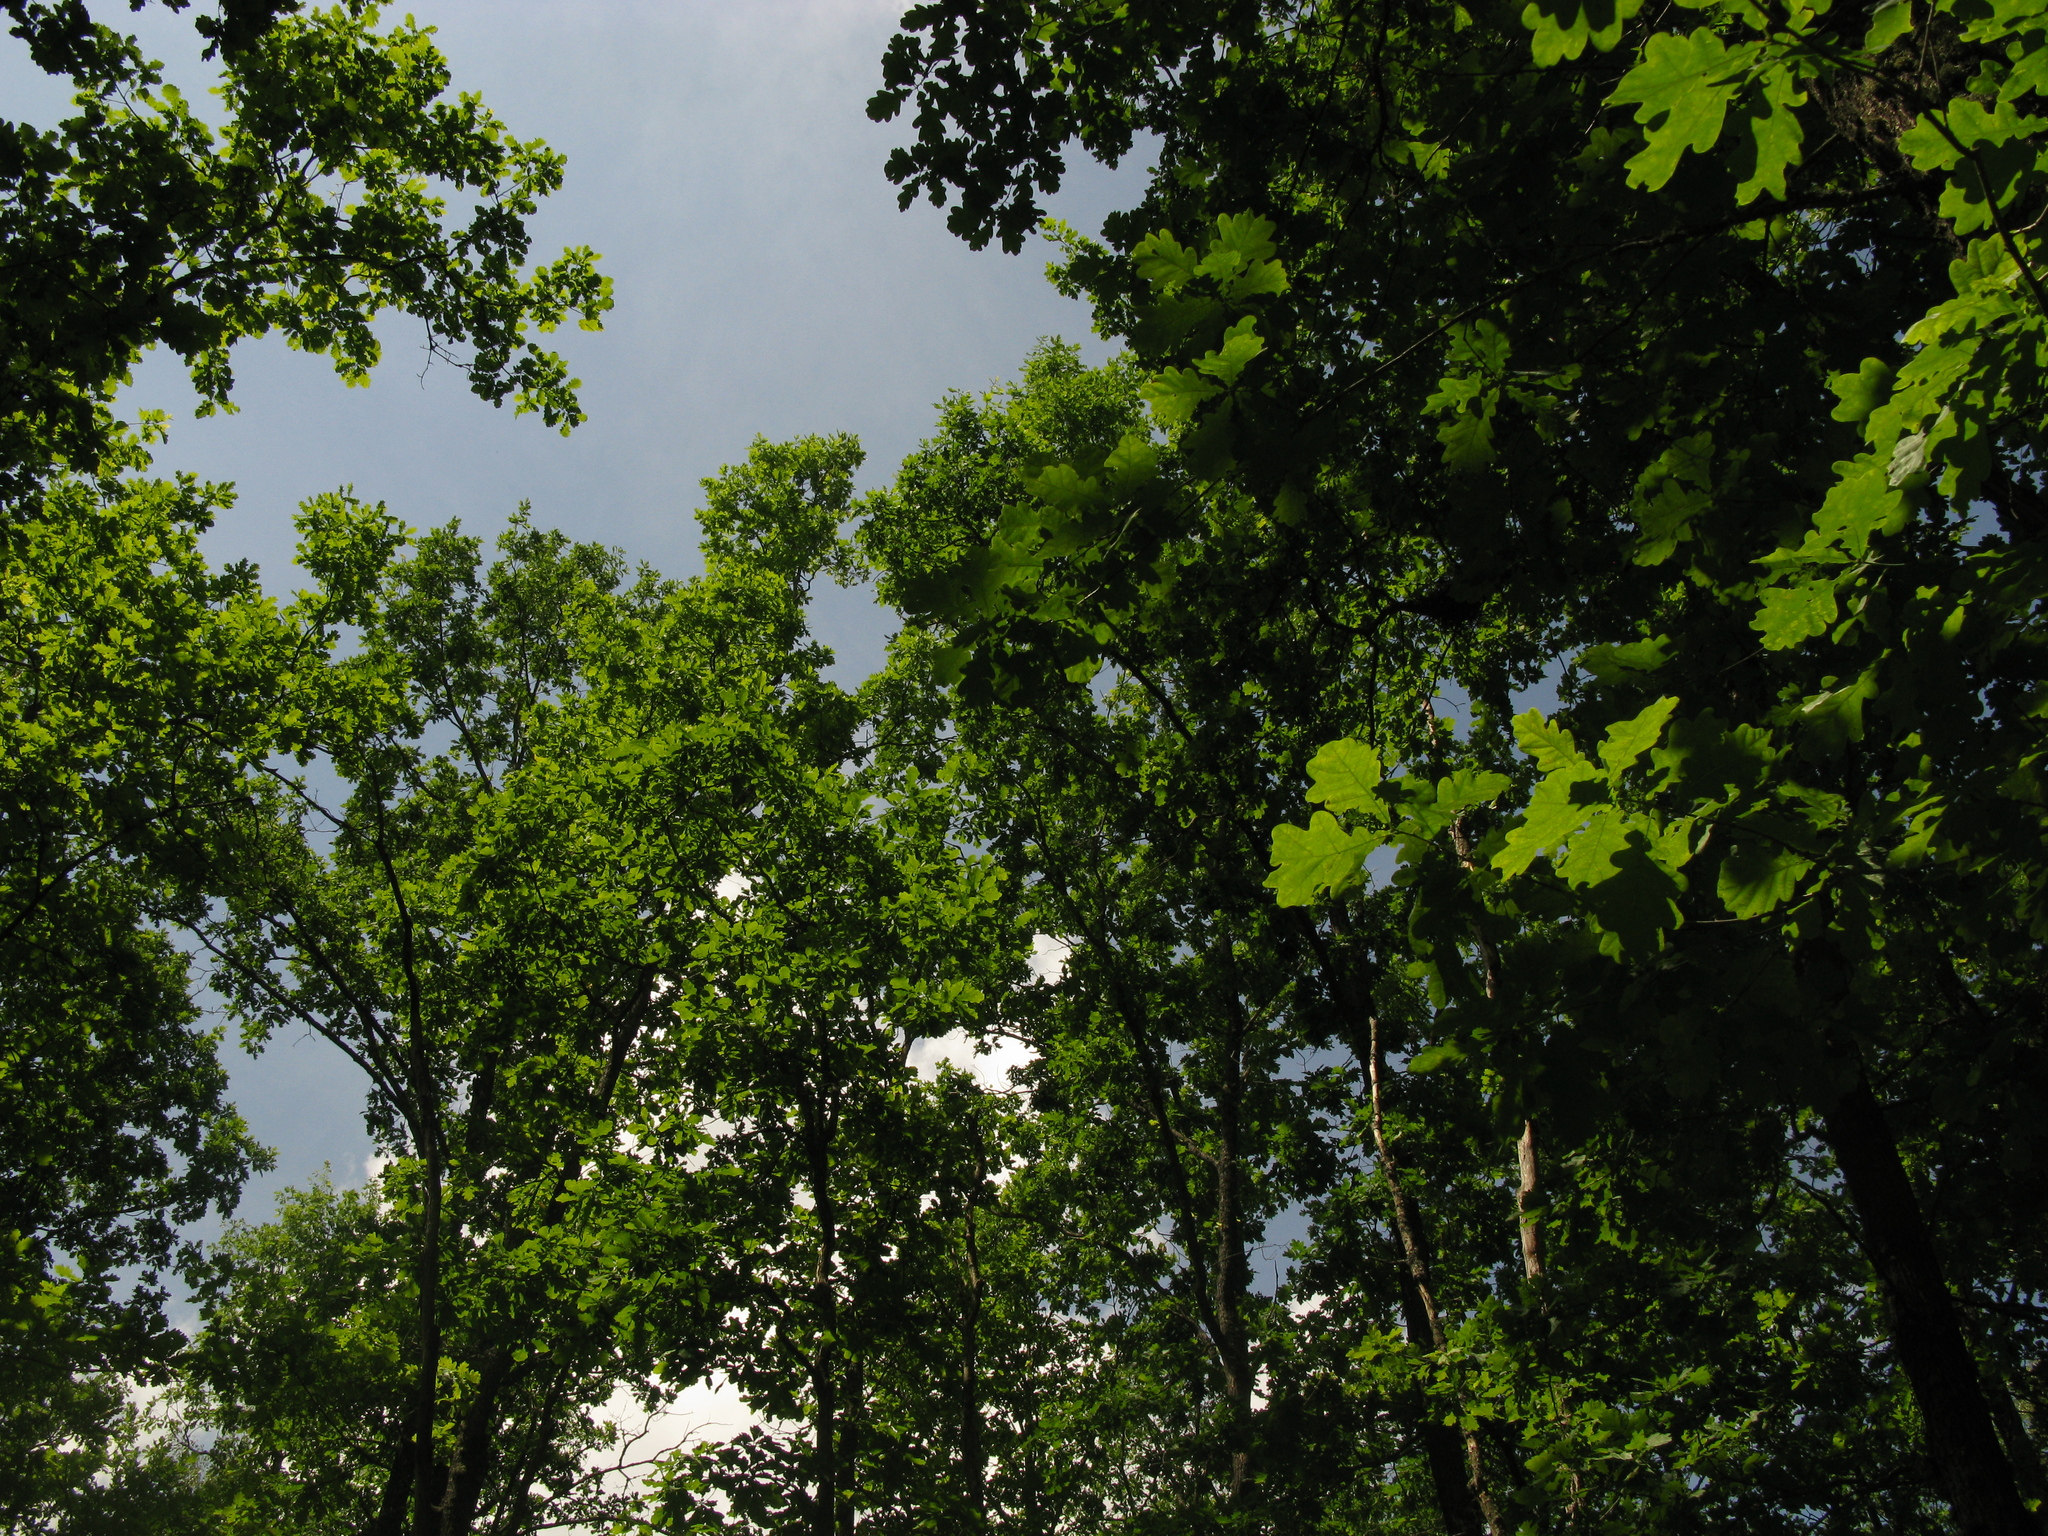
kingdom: Plantae
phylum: Tracheophyta
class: Magnoliopsida
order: Fagales
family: Fagaceae
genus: Quercus
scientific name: Quercus robur
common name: Pedunculate oak
